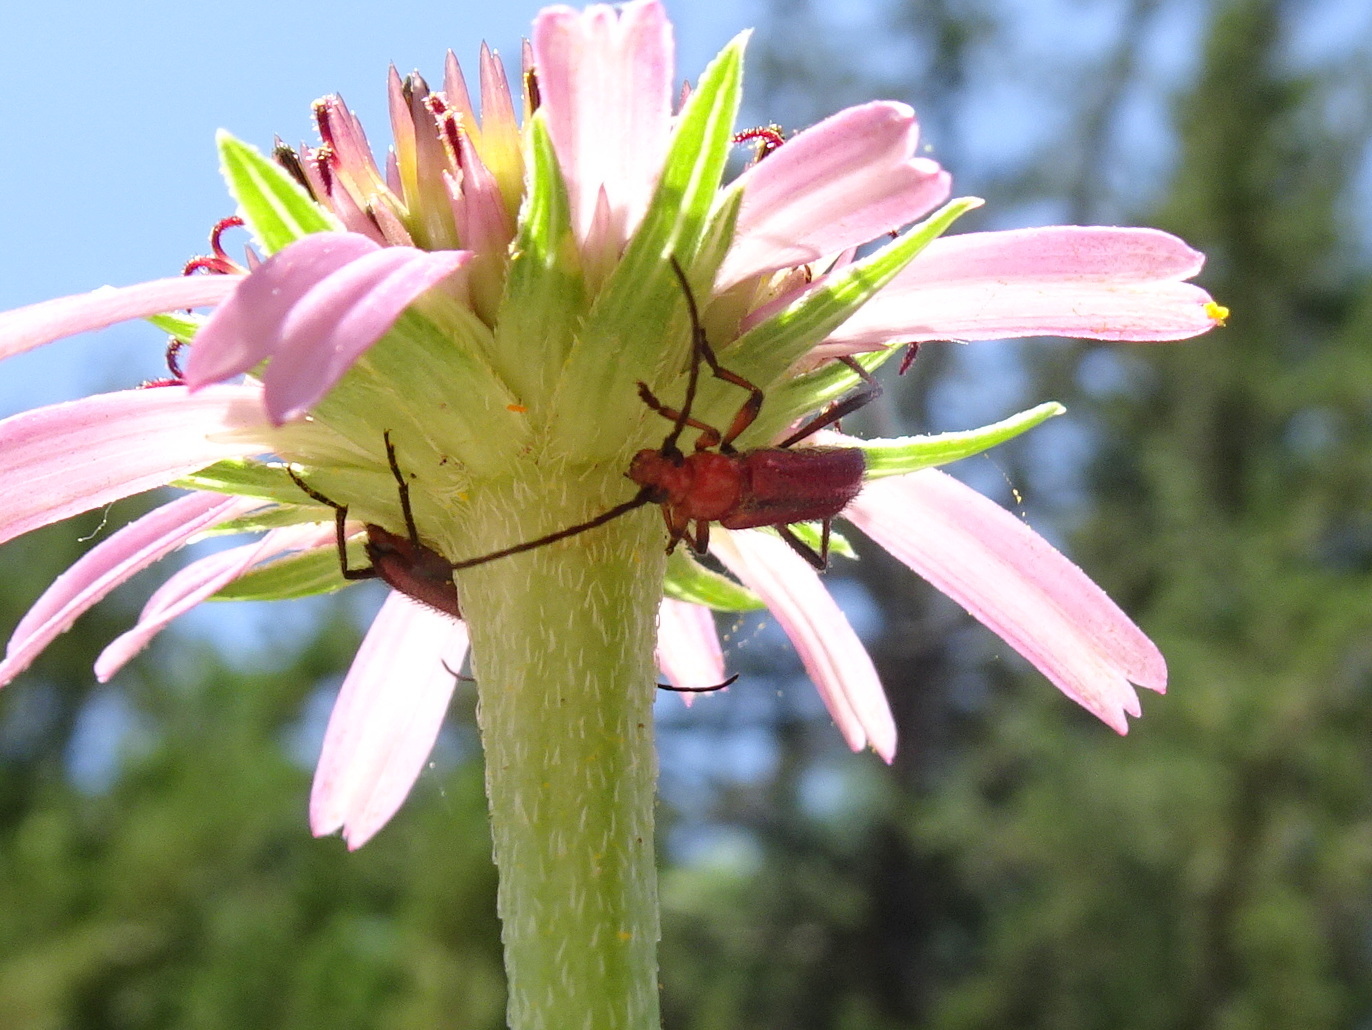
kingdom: Animalia
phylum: Arthropoda
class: Insecta
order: Coleoptera
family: Cerambycidae
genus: Batyle
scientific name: Batyle suturalis
